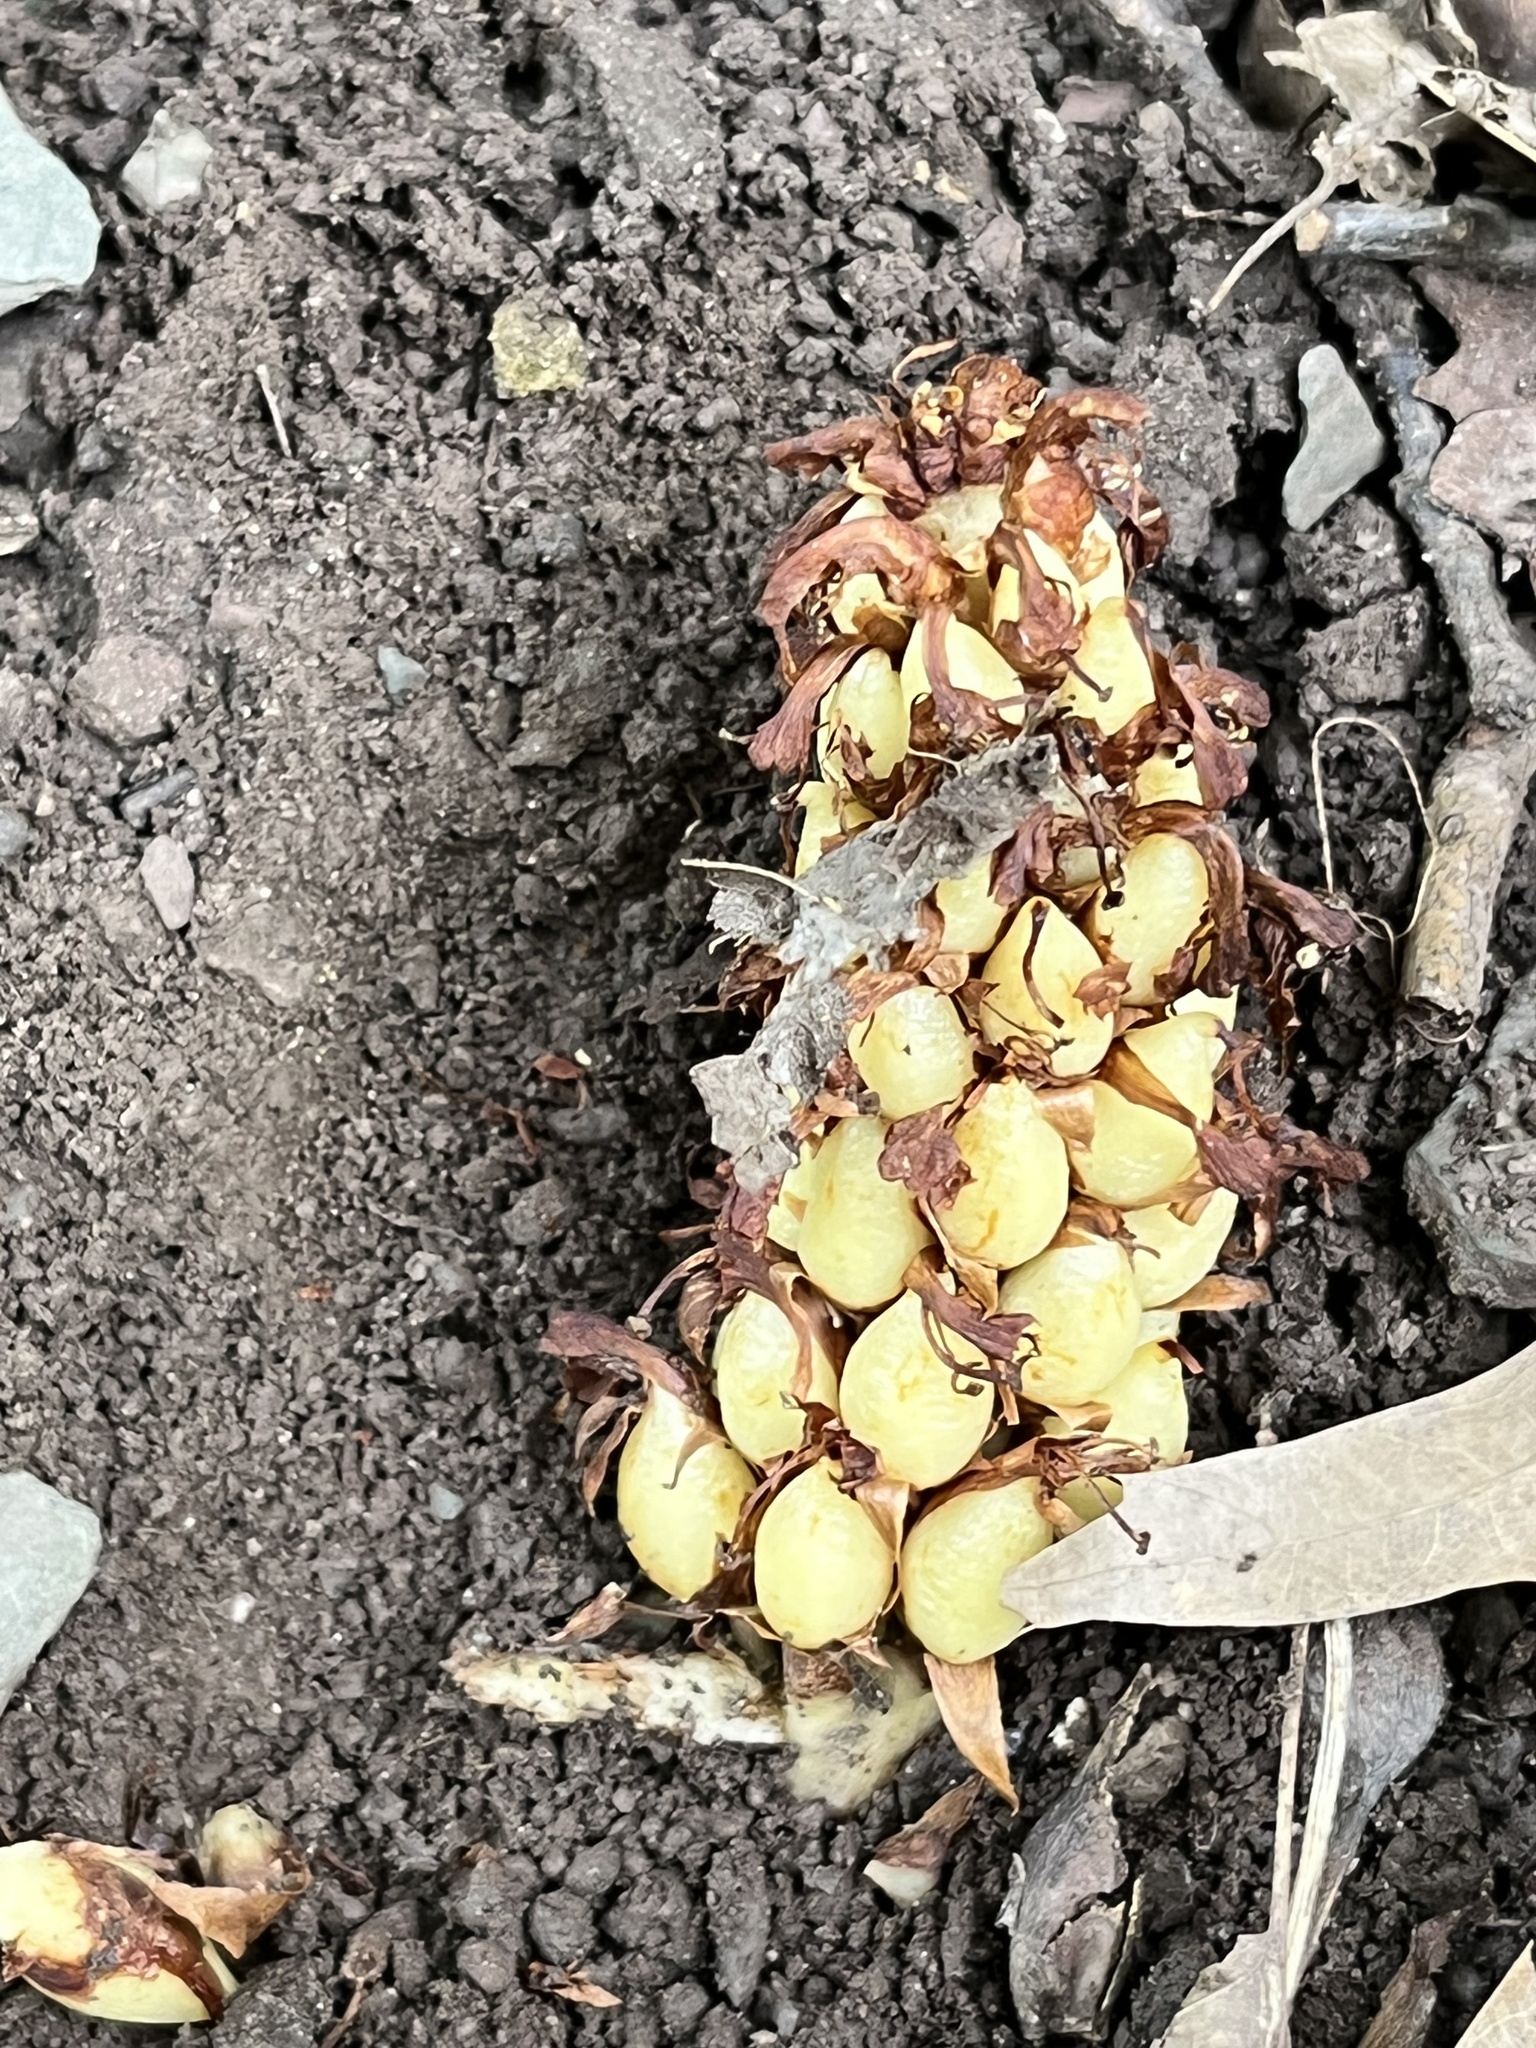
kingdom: Plantae
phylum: Tracheophyta
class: Magnoliopsida
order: Lamiales
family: Orobanchaceae
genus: Conopholis
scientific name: Conopholis americana
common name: American cancer-root
